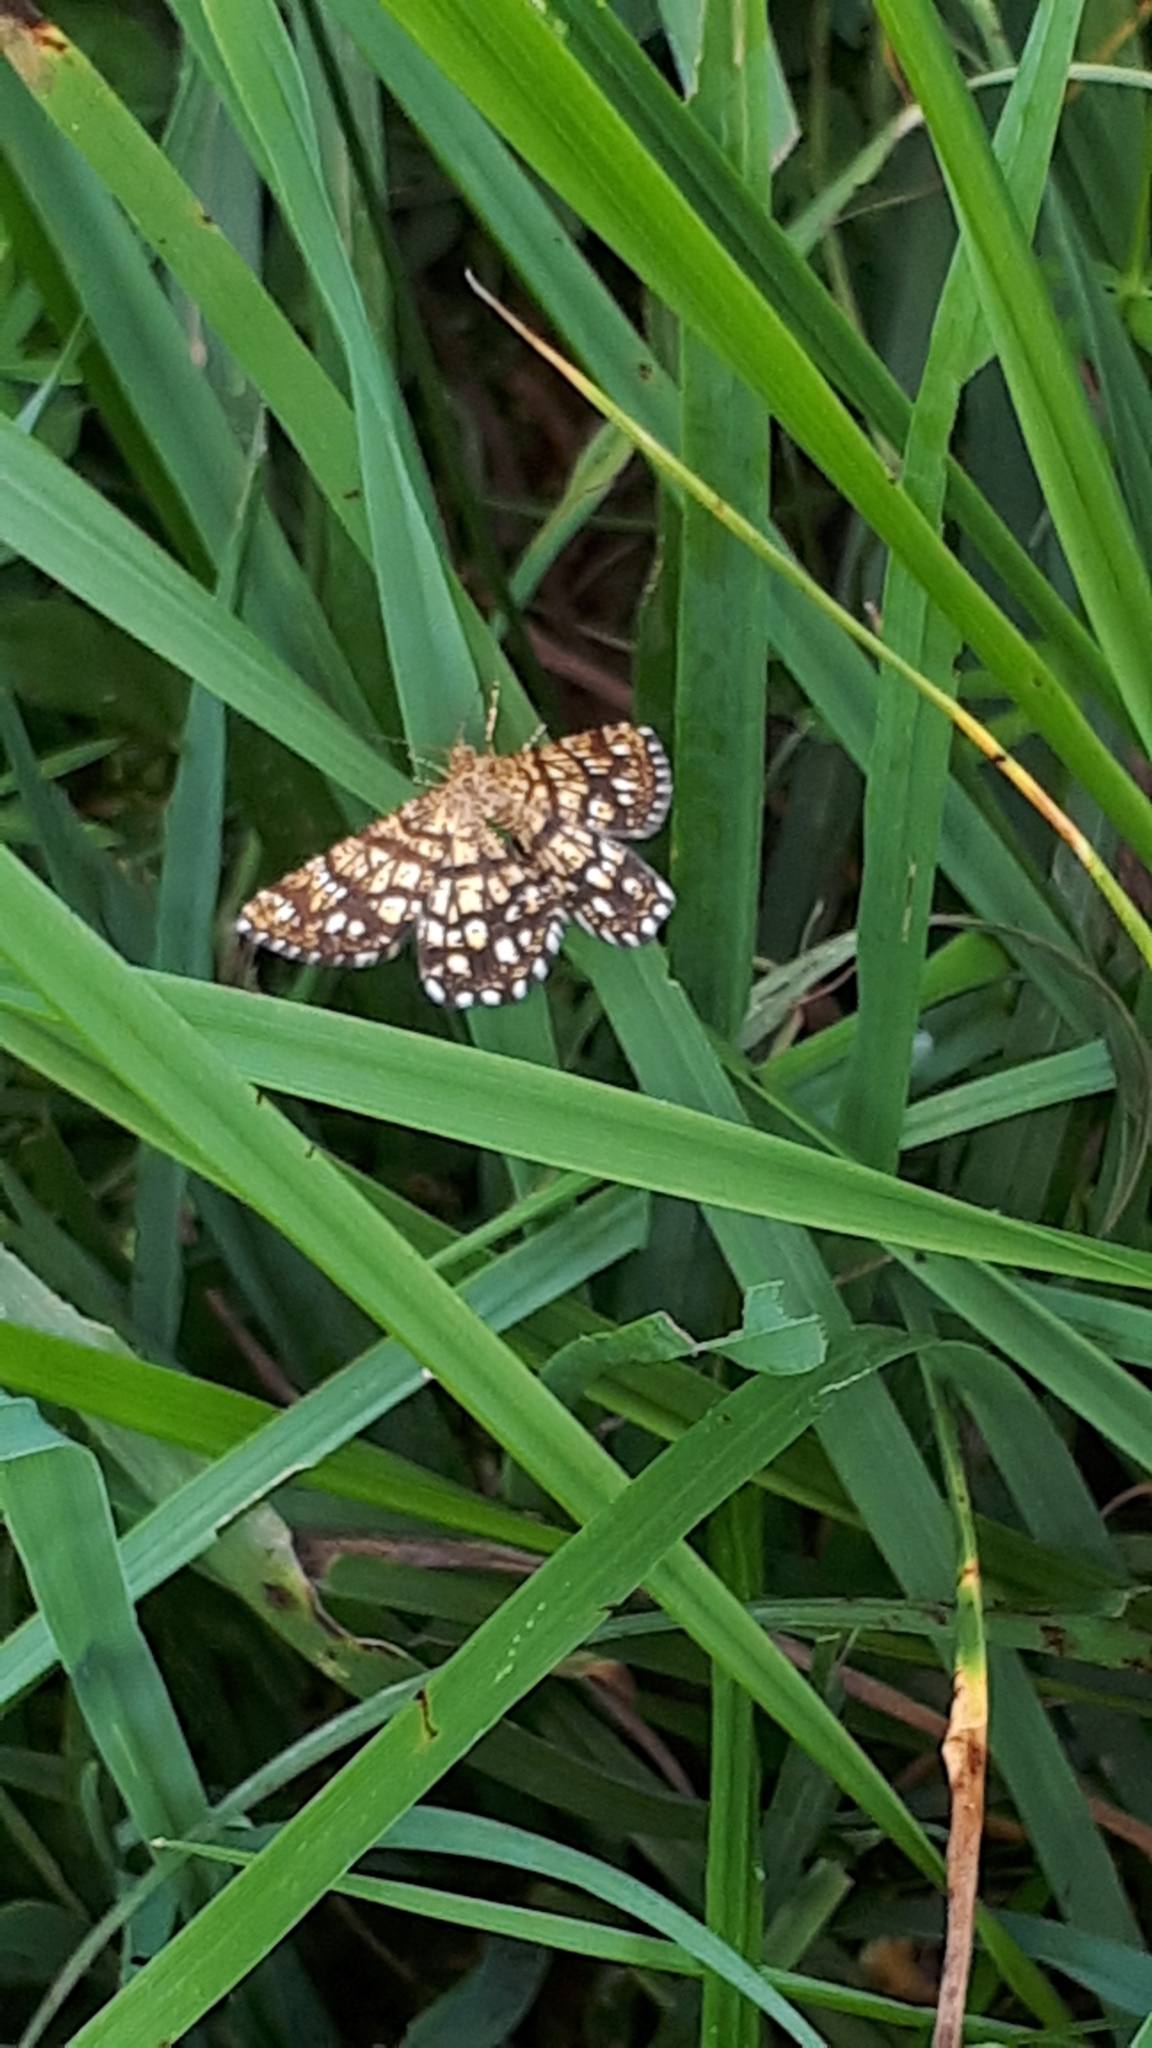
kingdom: Animalia
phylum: Arthropoda
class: Insecta
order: Lepidoptera
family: Geometridae
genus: Chiasmia
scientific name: Chiasmia clathrata
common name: Latticed heath
